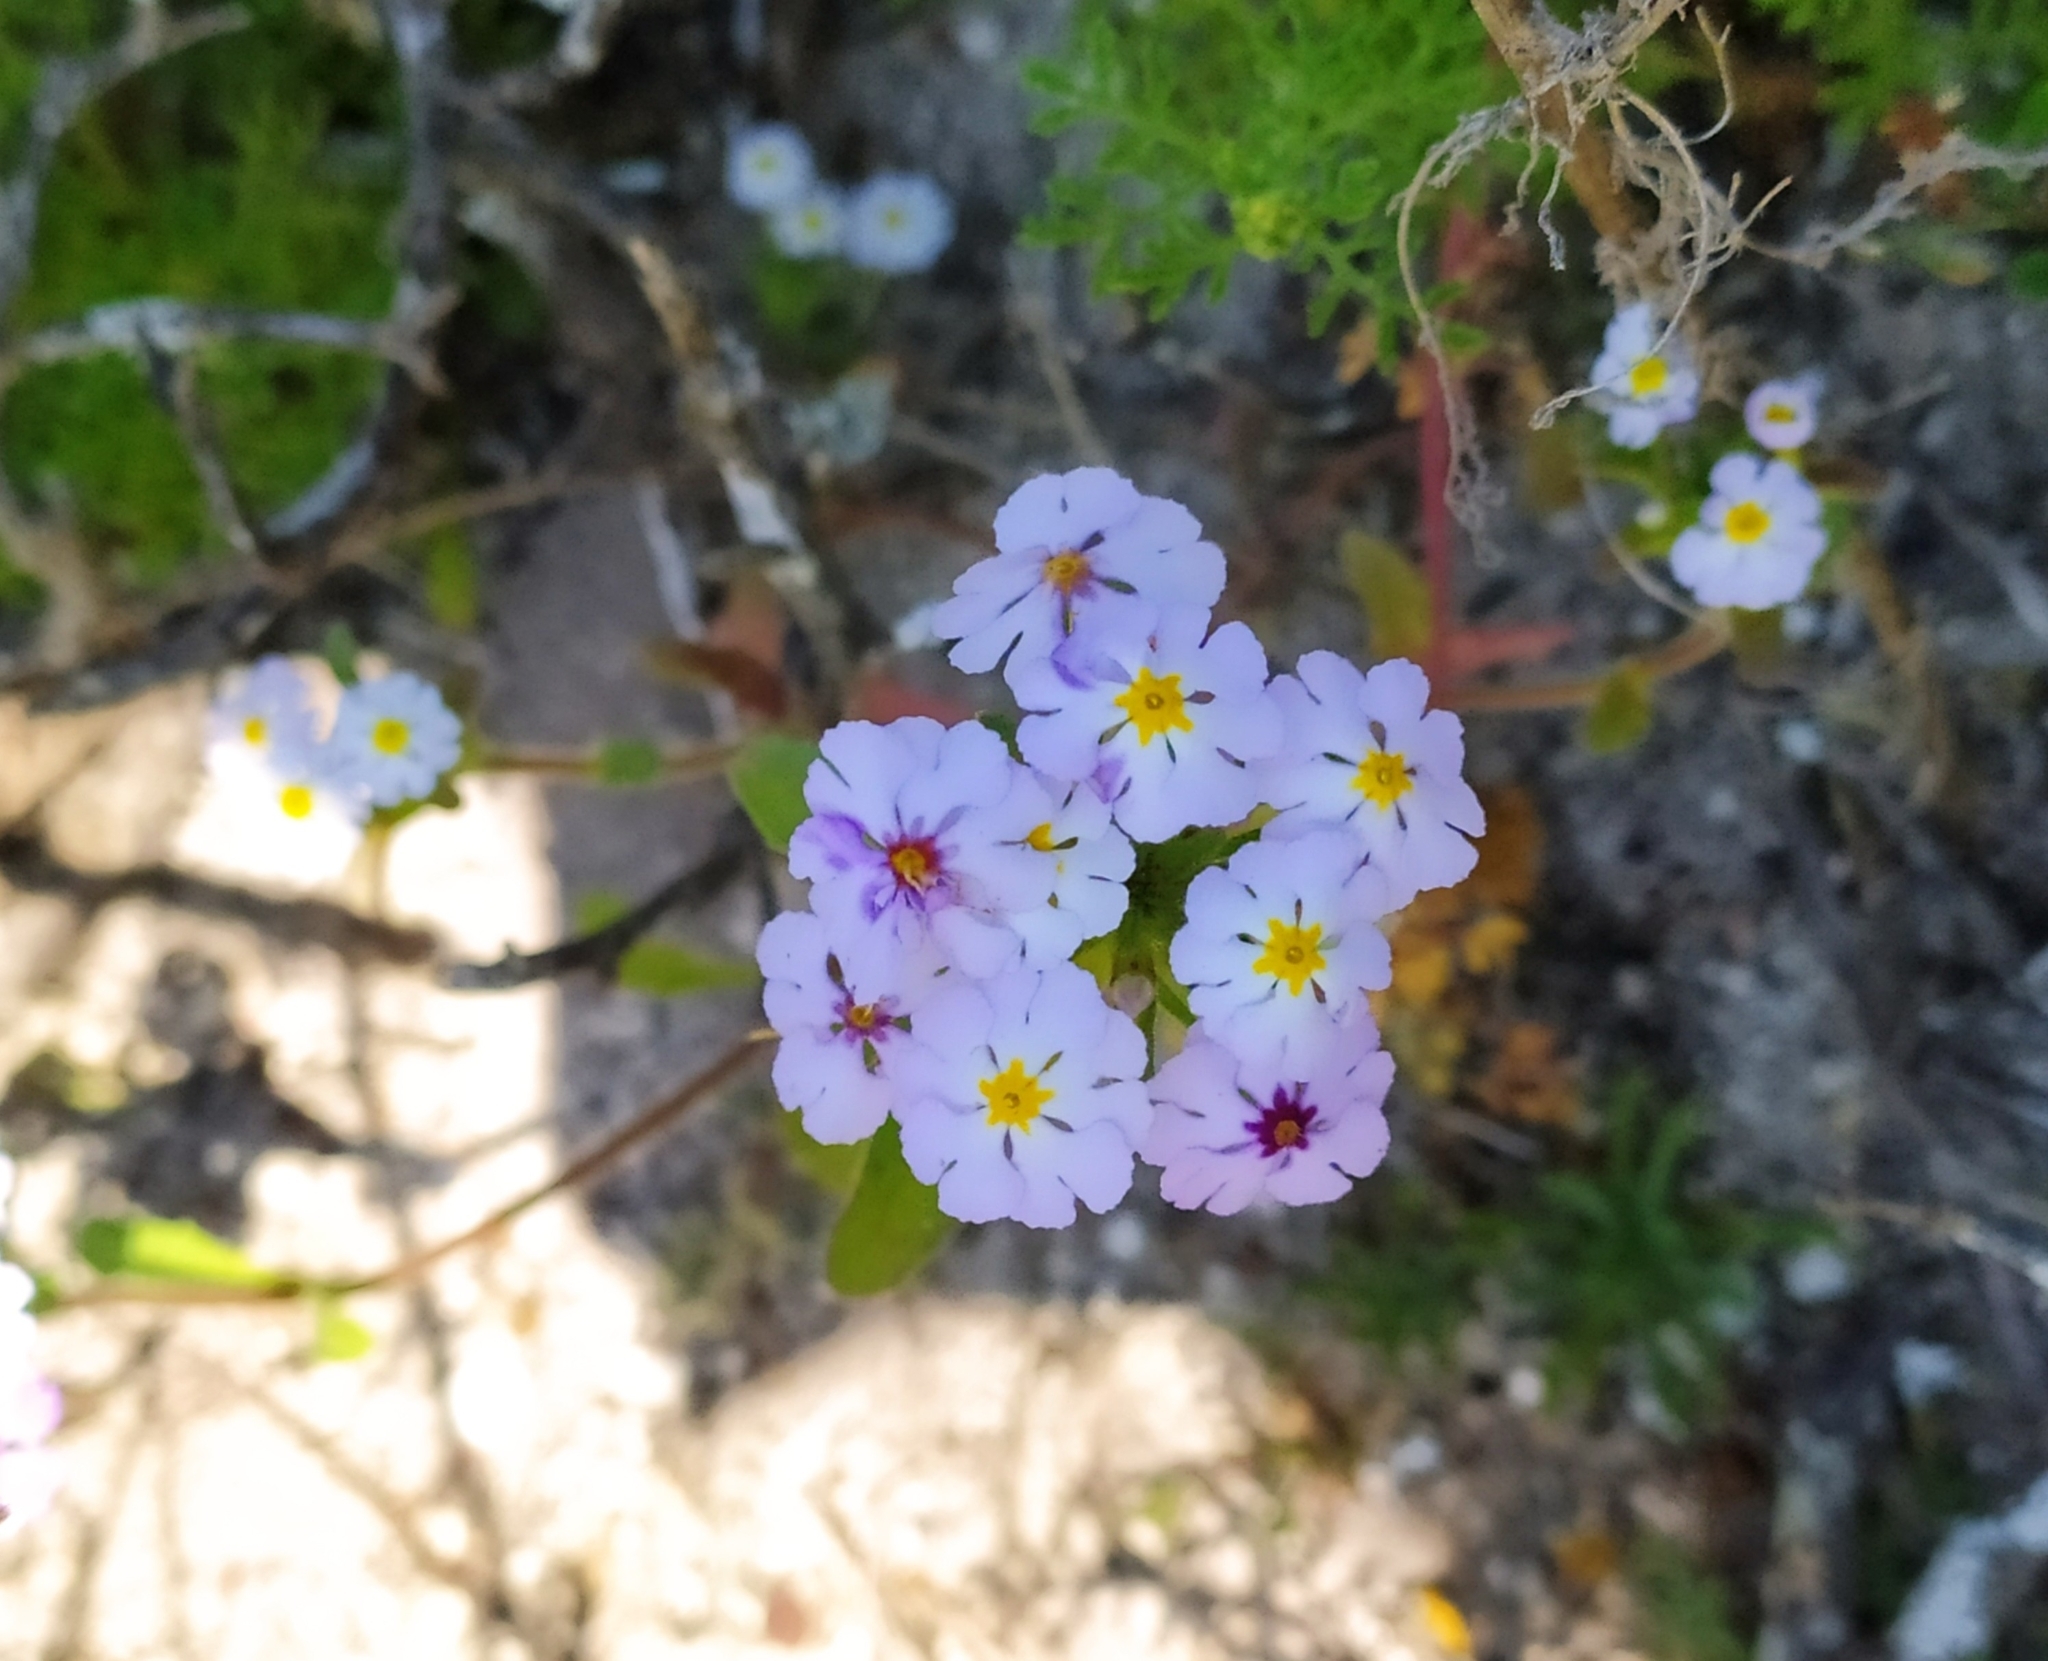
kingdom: Plantae
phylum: Tracheophyta
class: Magnoliopsida
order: Lamiales
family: Scrophulariaceae
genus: Zaluzianskya
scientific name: Zaluzianskya villosa
